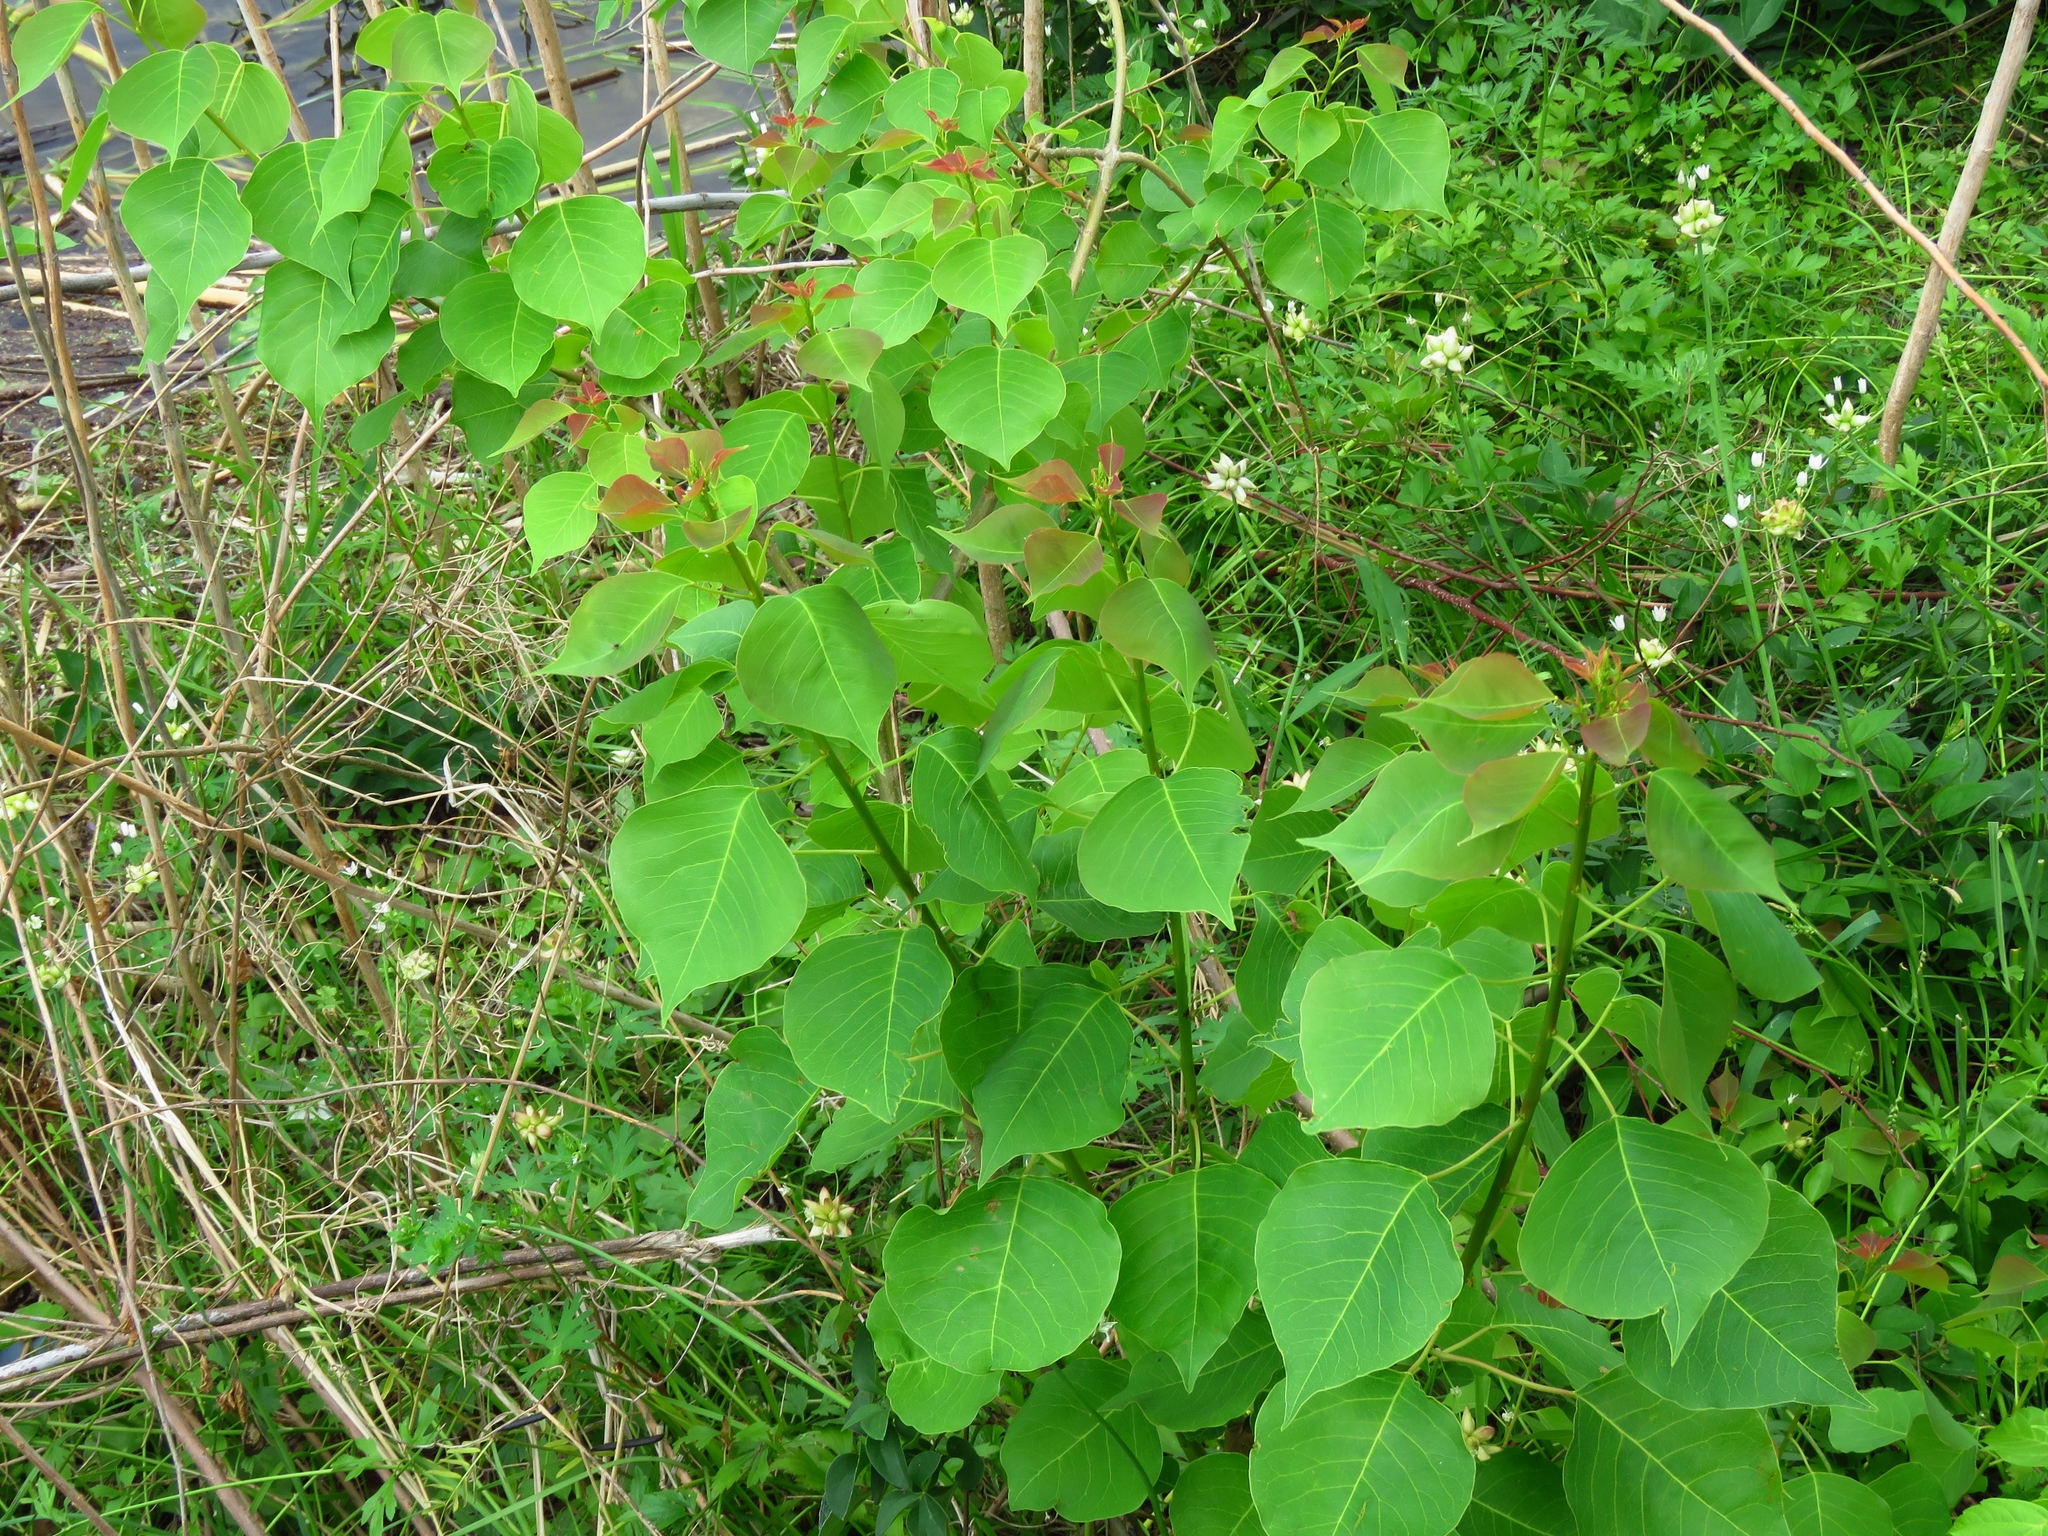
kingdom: Plantae
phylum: Tracheophyta
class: Magnoliopsida
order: Malpighiales
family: Euphorbiaceae
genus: Triadica
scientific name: Triadica sebifera
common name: Chinese tallow
